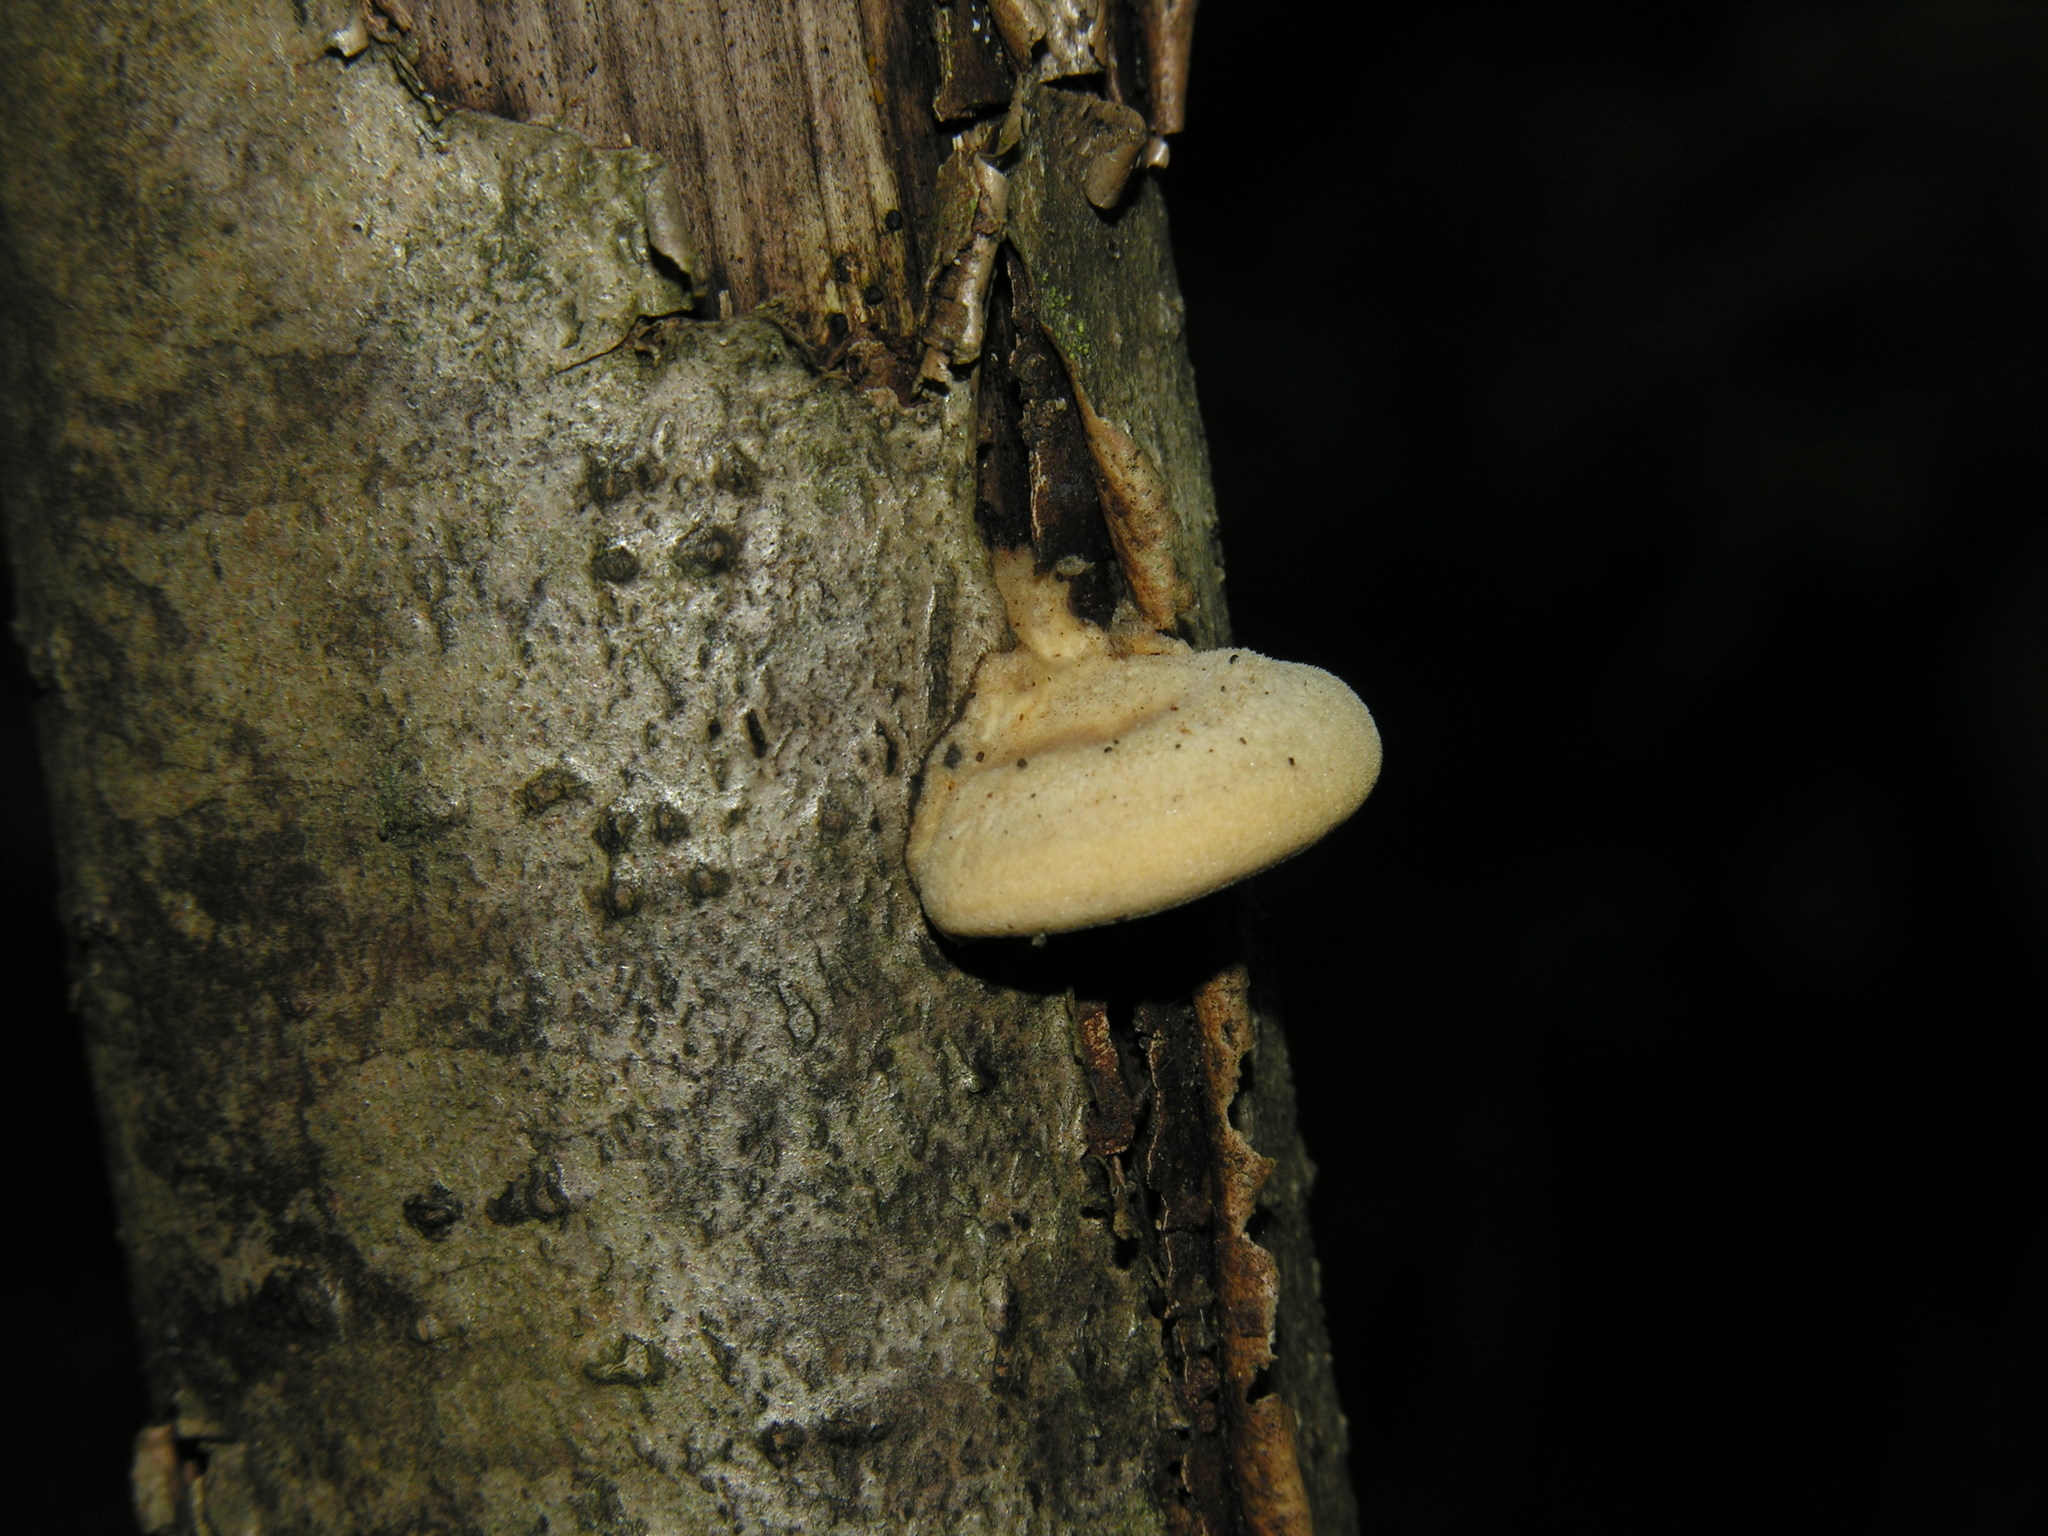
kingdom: Fungi
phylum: Basidiomycota
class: Agaricomycetes
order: Polyporales
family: Steccherinaceae
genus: Metuloidea
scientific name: Metuloidea fragrans
